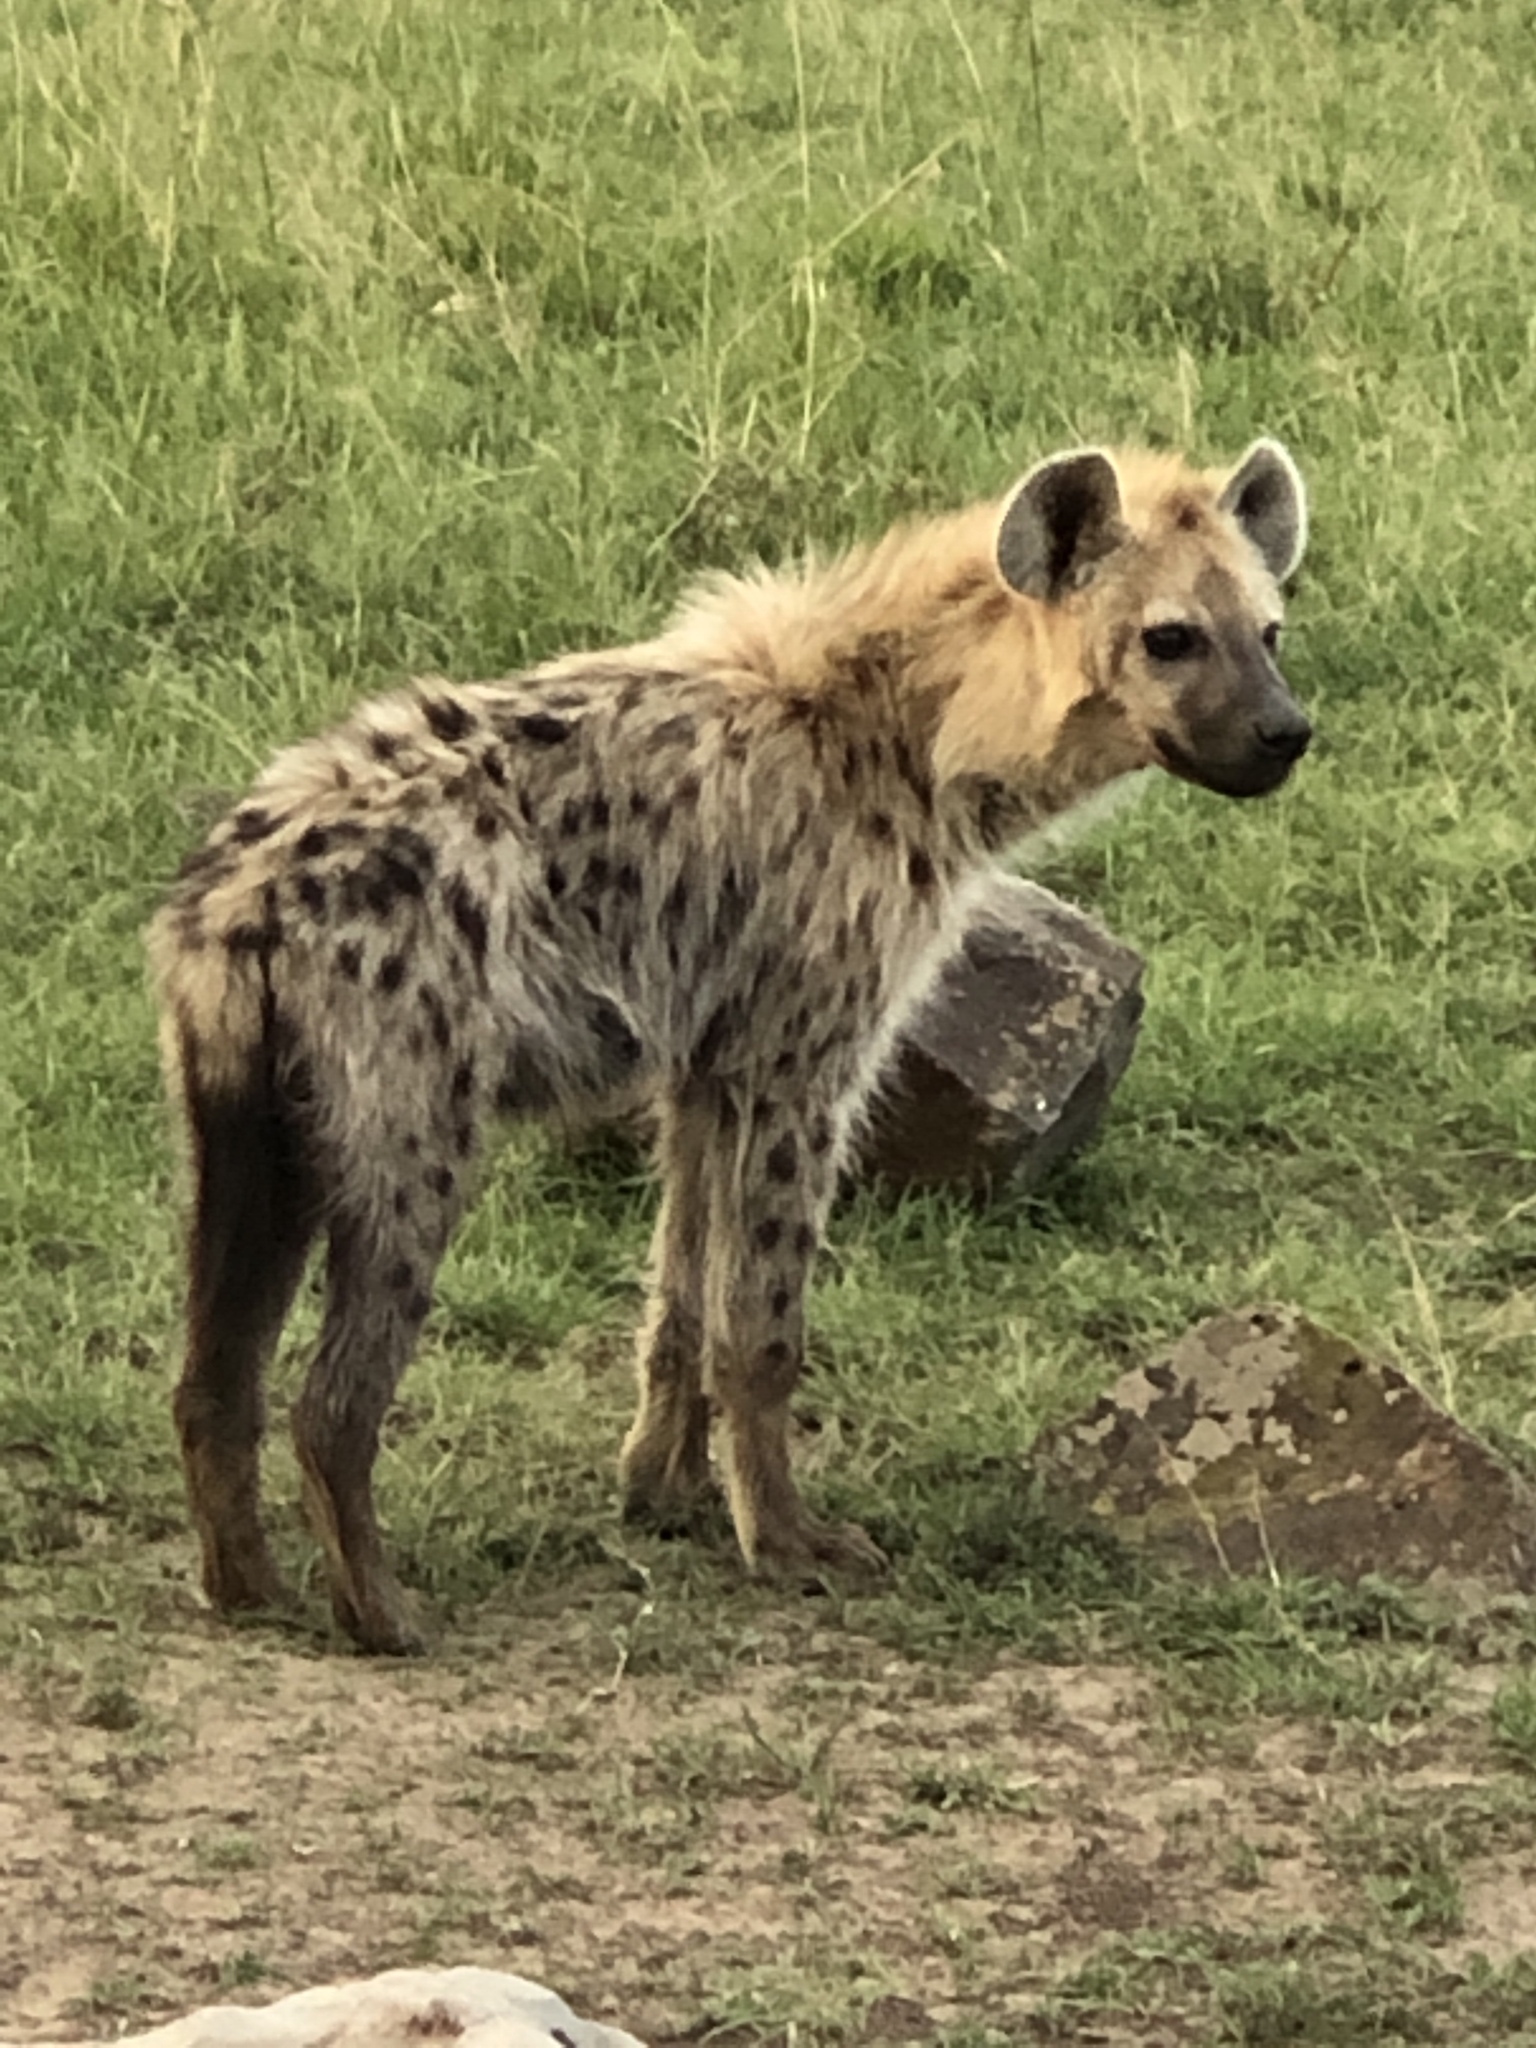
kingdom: Animalia
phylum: Chordata
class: Mammalia
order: Carnivora
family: Hyaenidae
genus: Crocuta
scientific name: Crocuta crocuta
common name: Spotted hyaena
